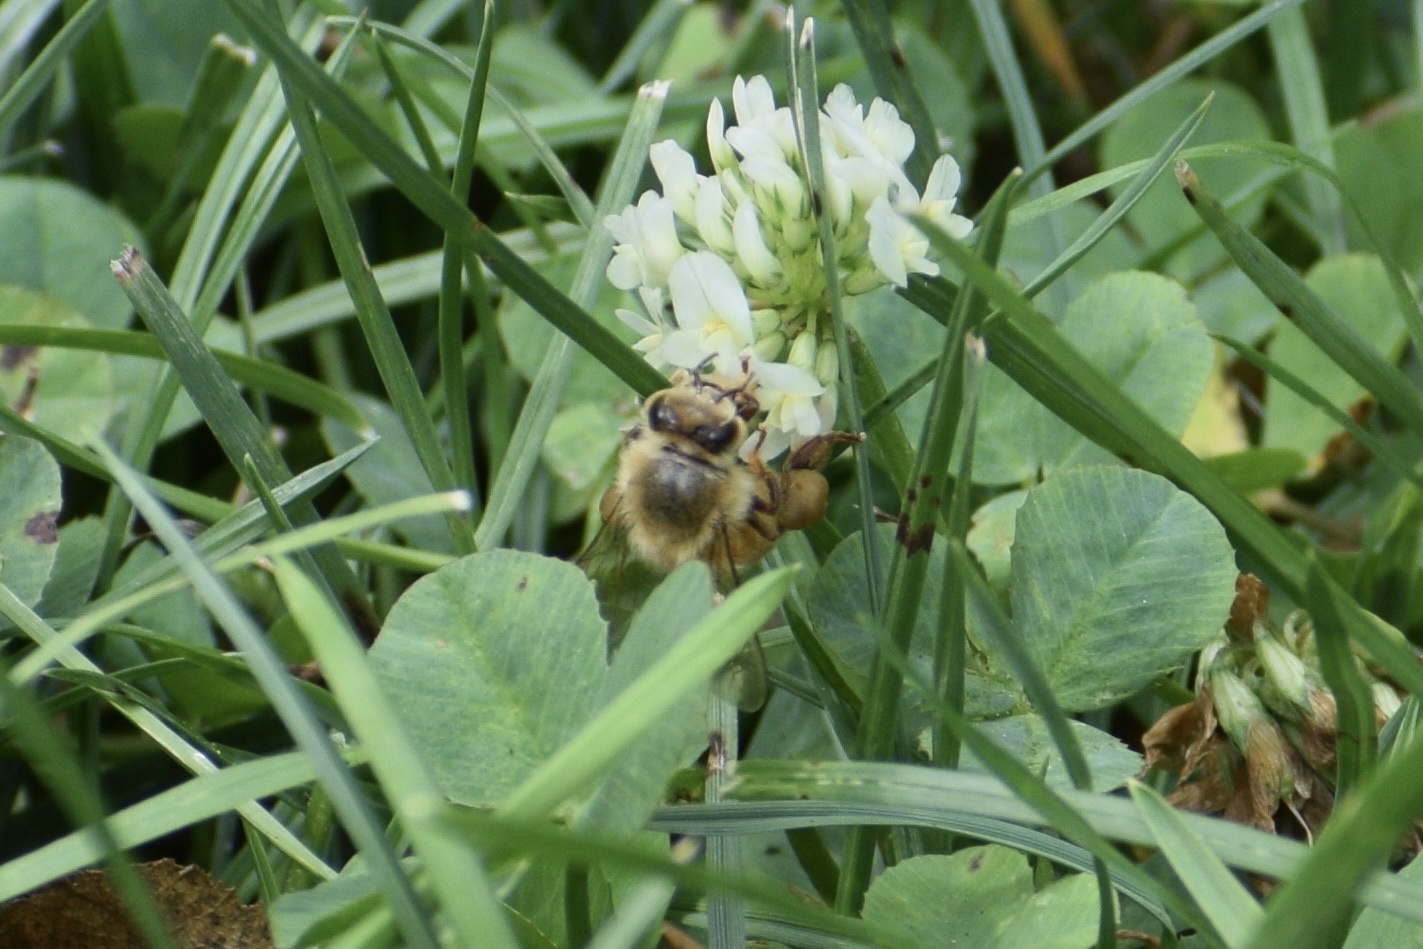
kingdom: Animalia
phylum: Arthropoda
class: Insecta
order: Hymenoptera
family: Apidae
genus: Apis
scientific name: Apis mellifera
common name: Honey bee
